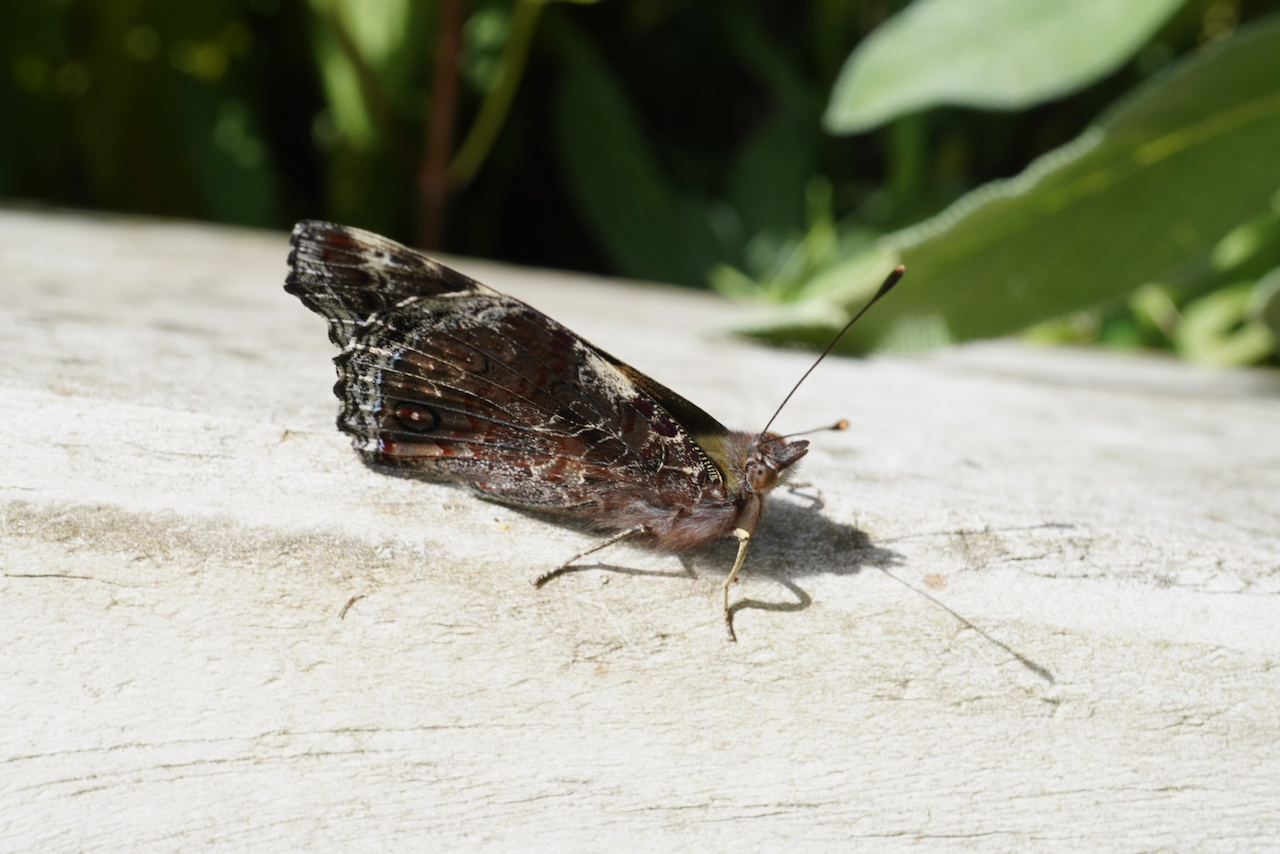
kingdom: Animalia
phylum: Arthropoda
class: Insecta
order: Lepidoptera
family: Nymphalidae
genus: Vanessa
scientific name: Vanessa itea
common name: Yellow admiral
